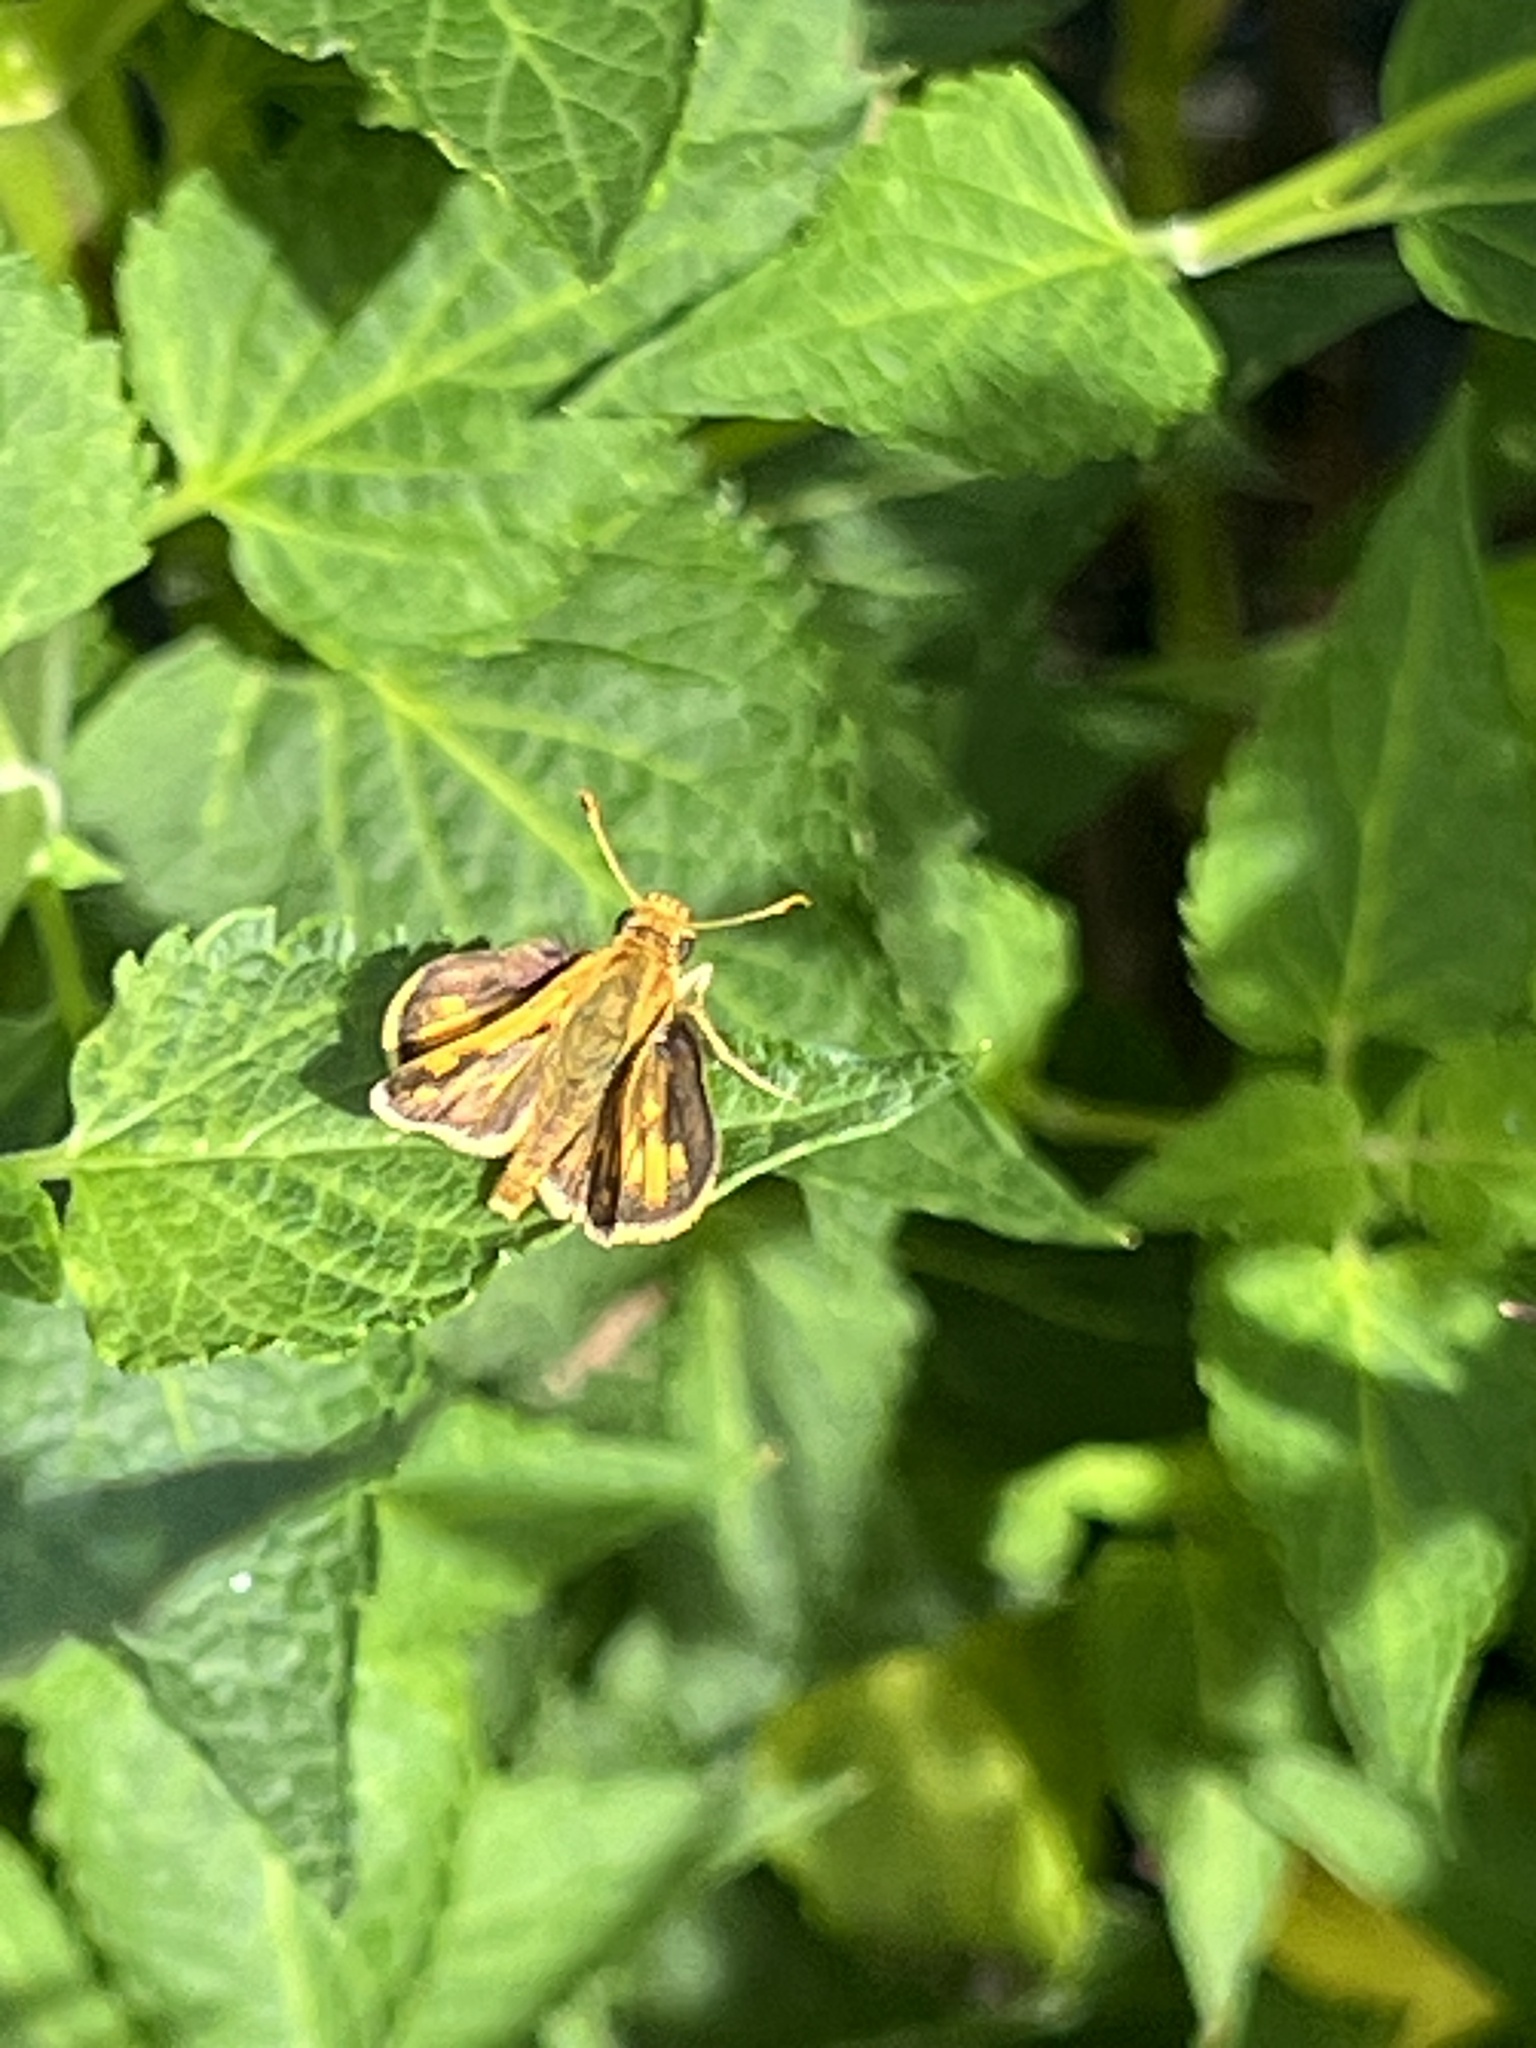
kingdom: Animalia
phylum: Arthropoda
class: Insecta
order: Lepidoptera
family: Hesperiidae
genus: Polites
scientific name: Polites coras
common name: Peck's skipper
